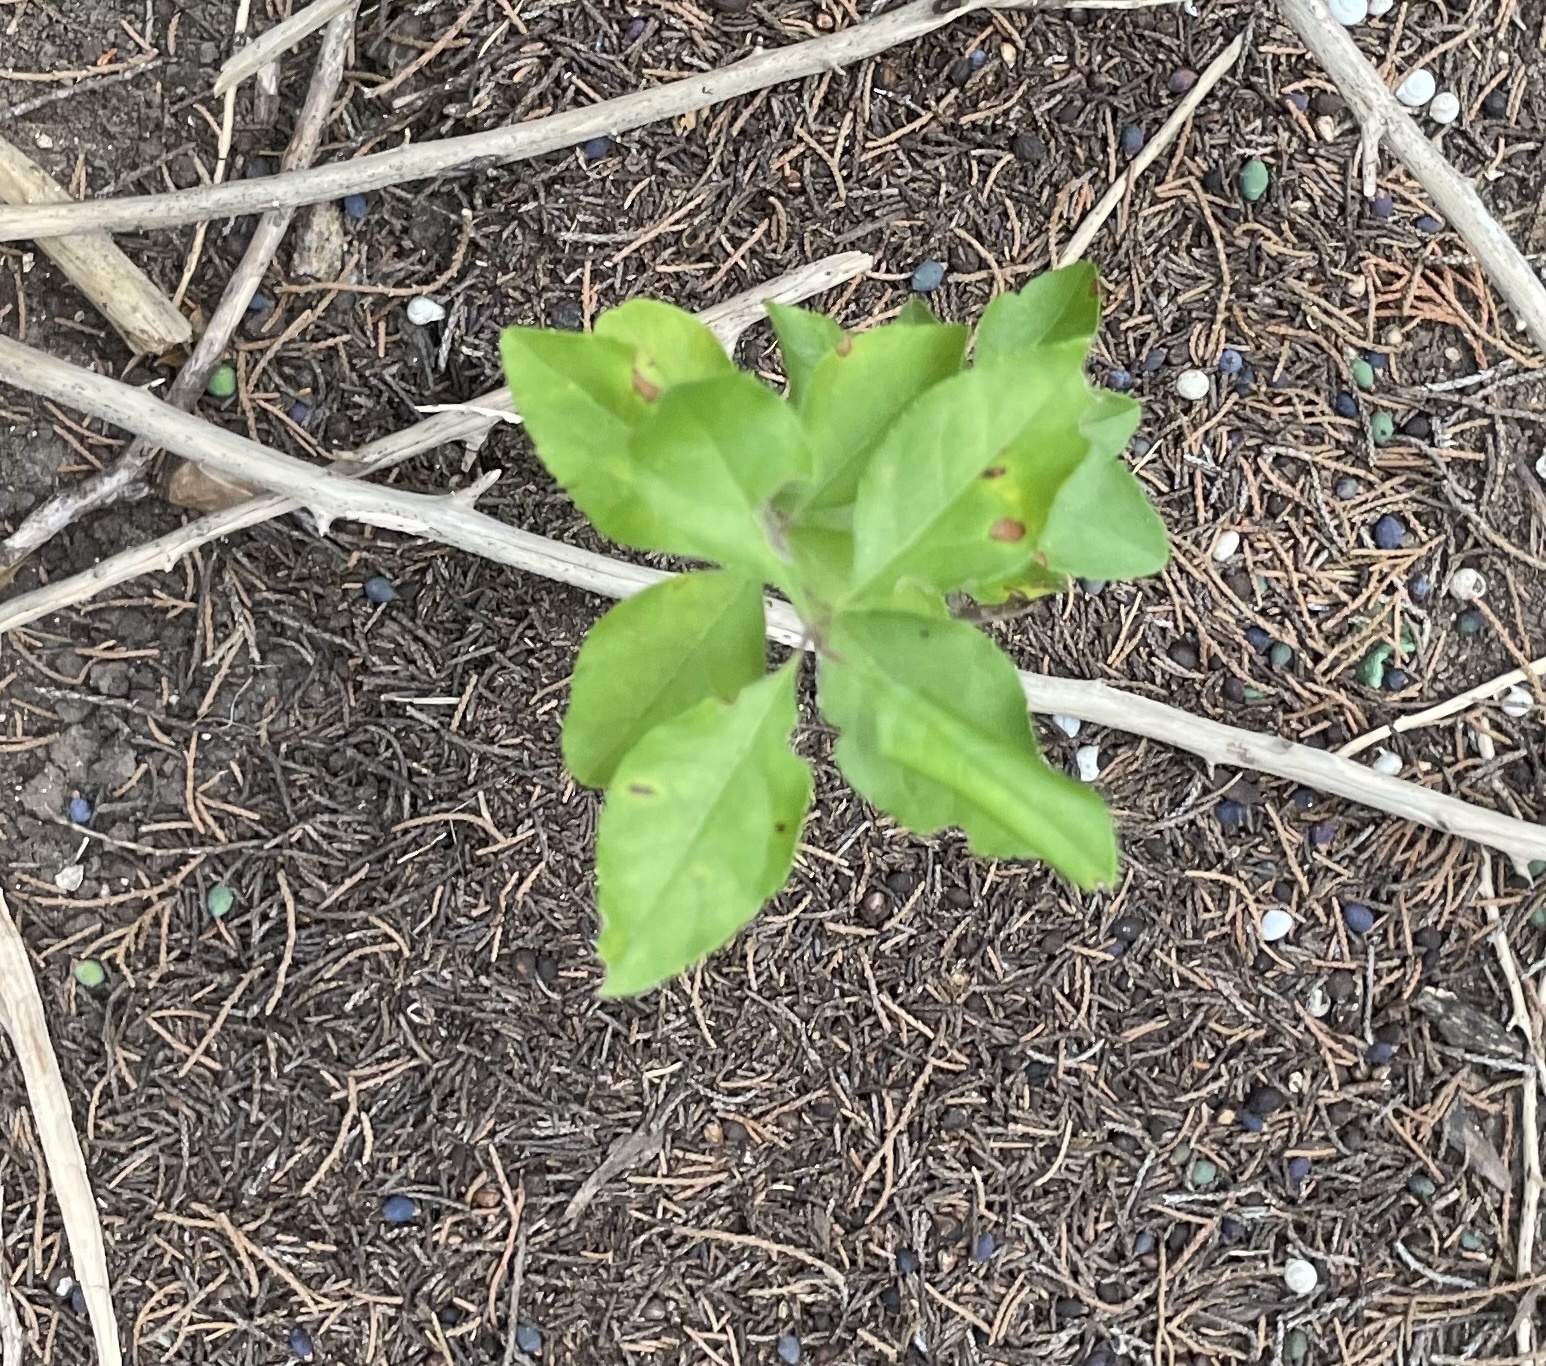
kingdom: Plantae
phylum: Tracheophyta
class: Magnoliopsida
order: Lamiales
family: Oleaceae
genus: Forestiera
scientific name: Forestiera pubescens
